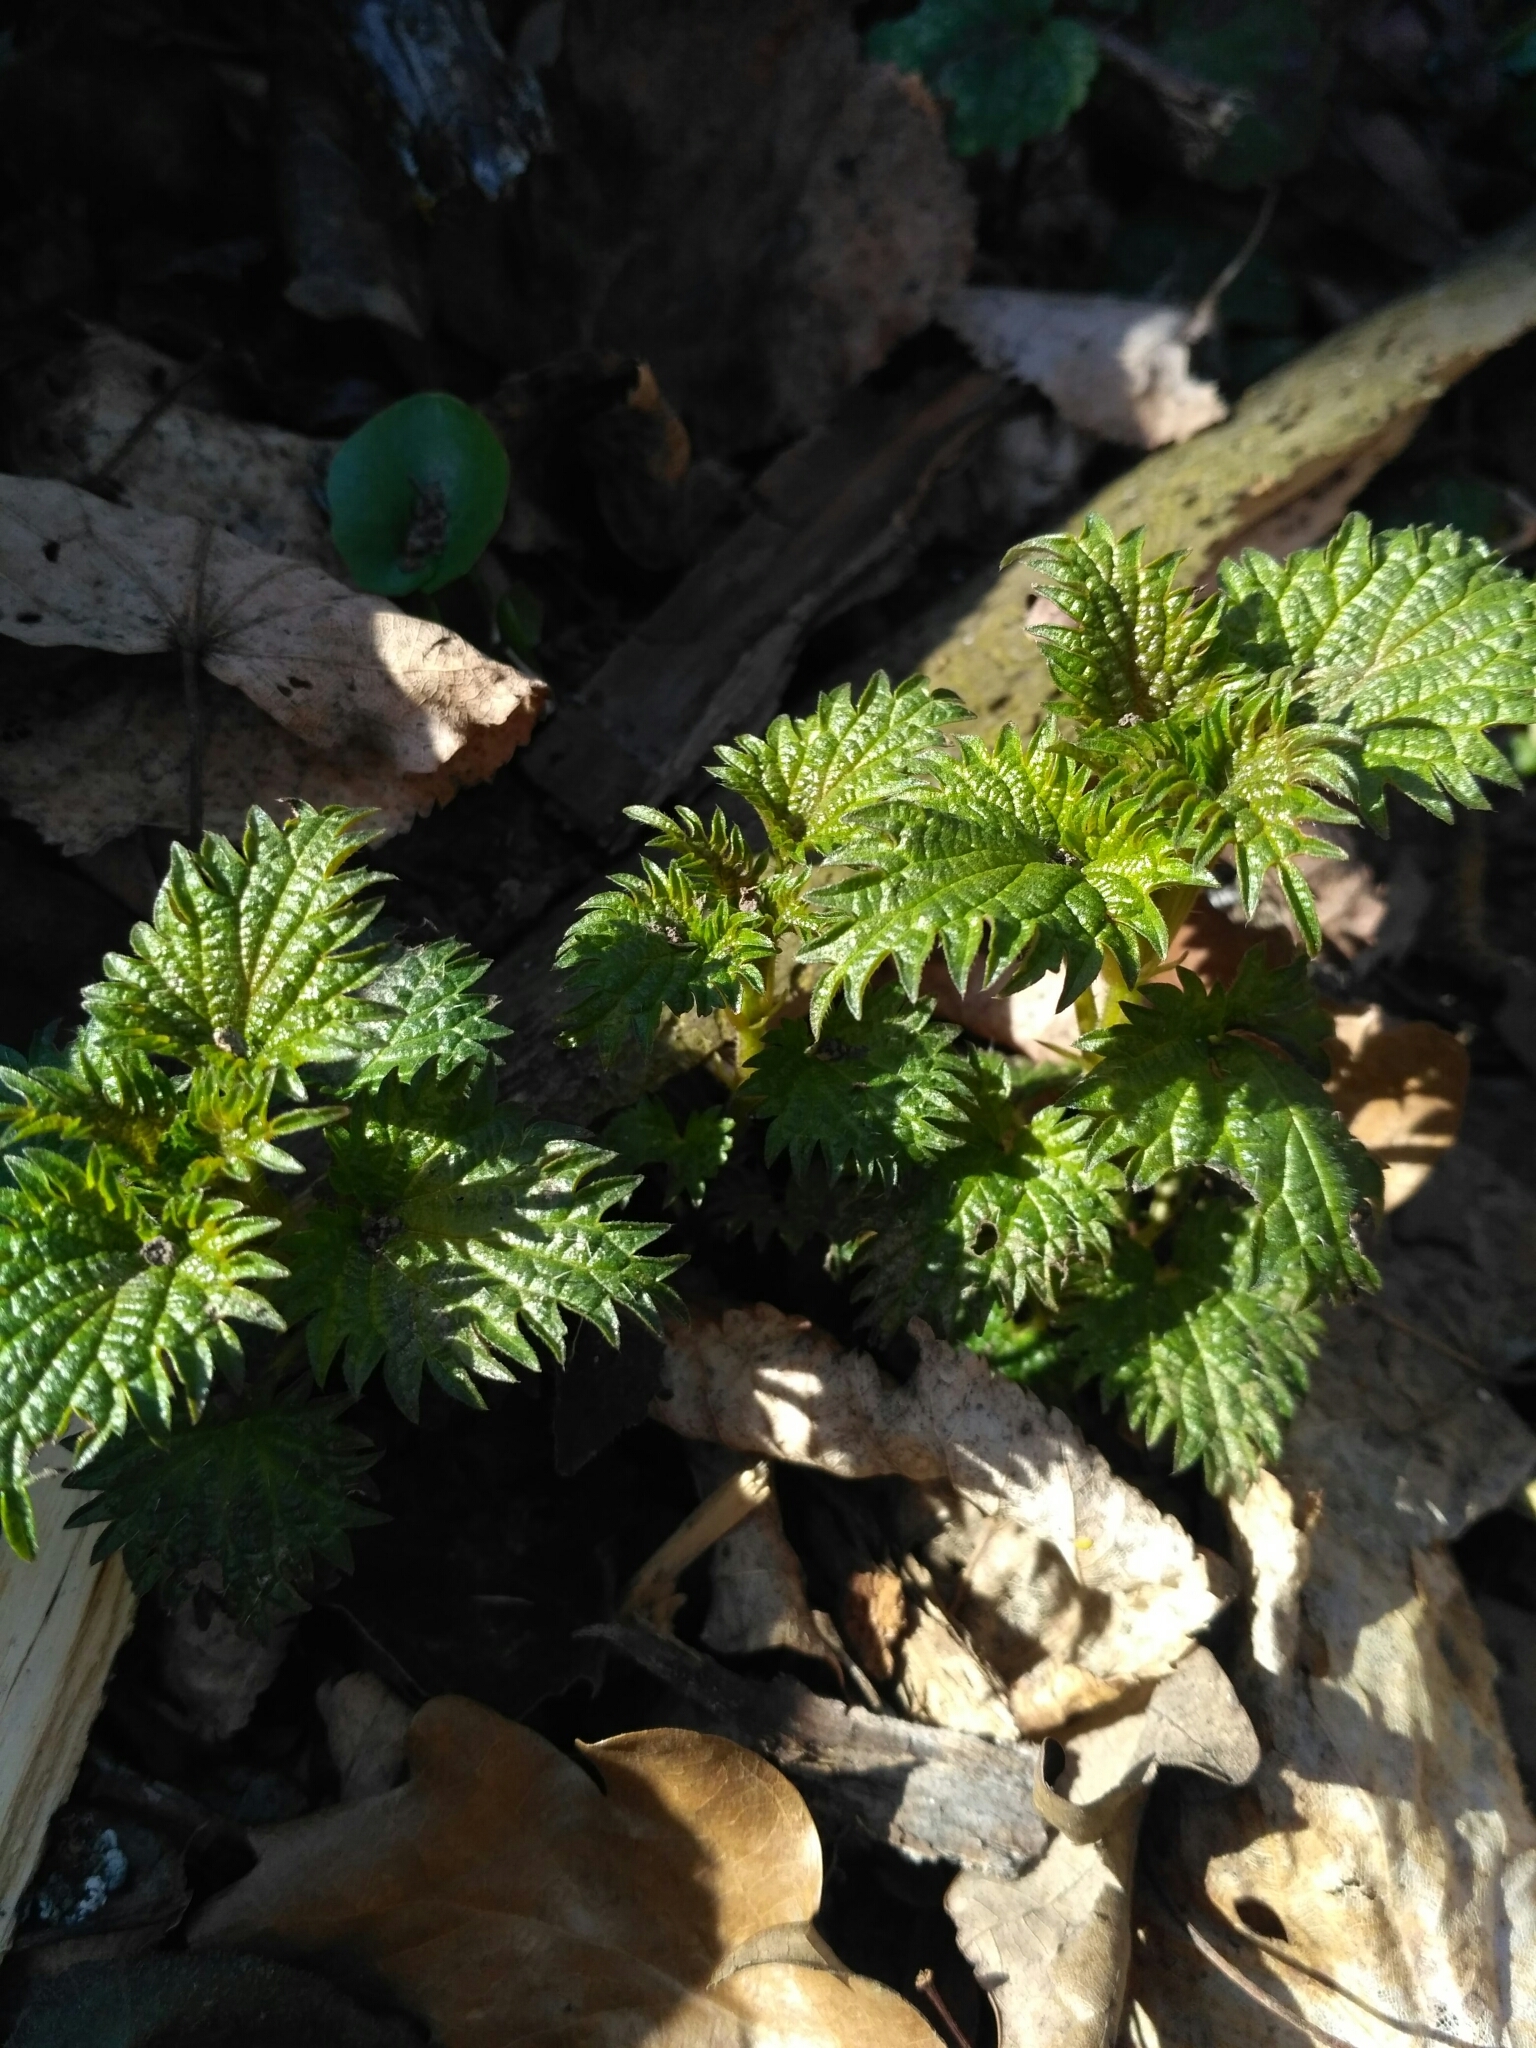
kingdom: Plantae
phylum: Tracheophyta
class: Magnoliopsida
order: Rosales
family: Urticaceae
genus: Urtica
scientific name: Urtica dioica
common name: Common nettle
